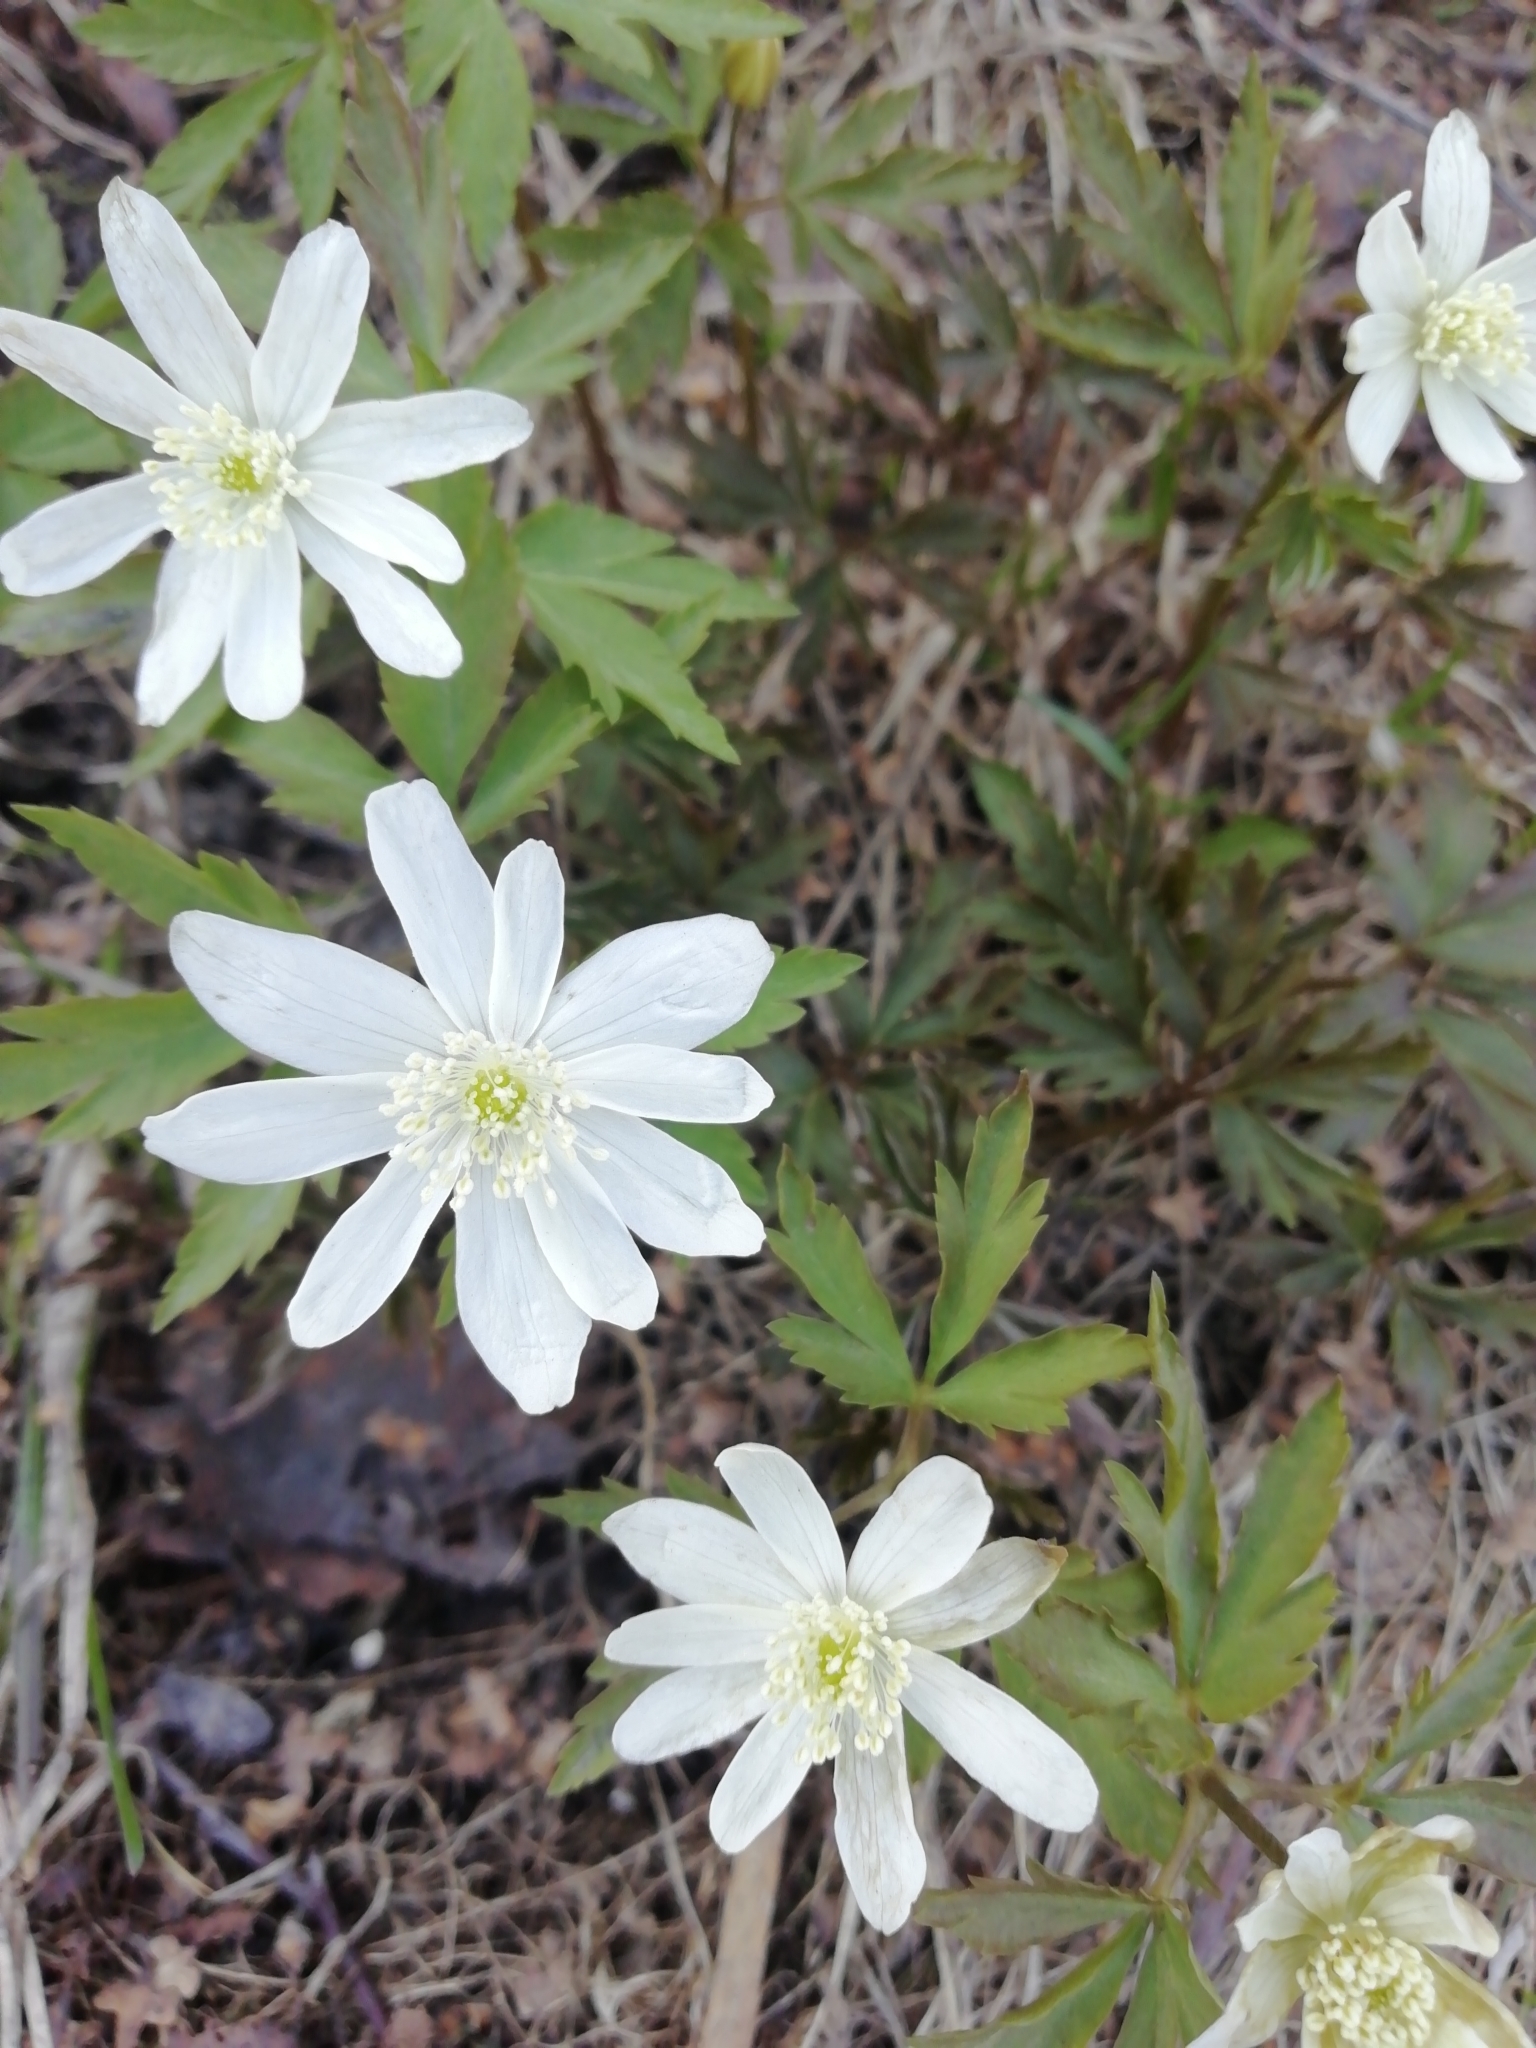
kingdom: Plantae
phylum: Tracheophyta
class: Magnoliopsida
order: Ranunculales
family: Ranunculaceae
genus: Anemone
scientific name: Anemone altaica
